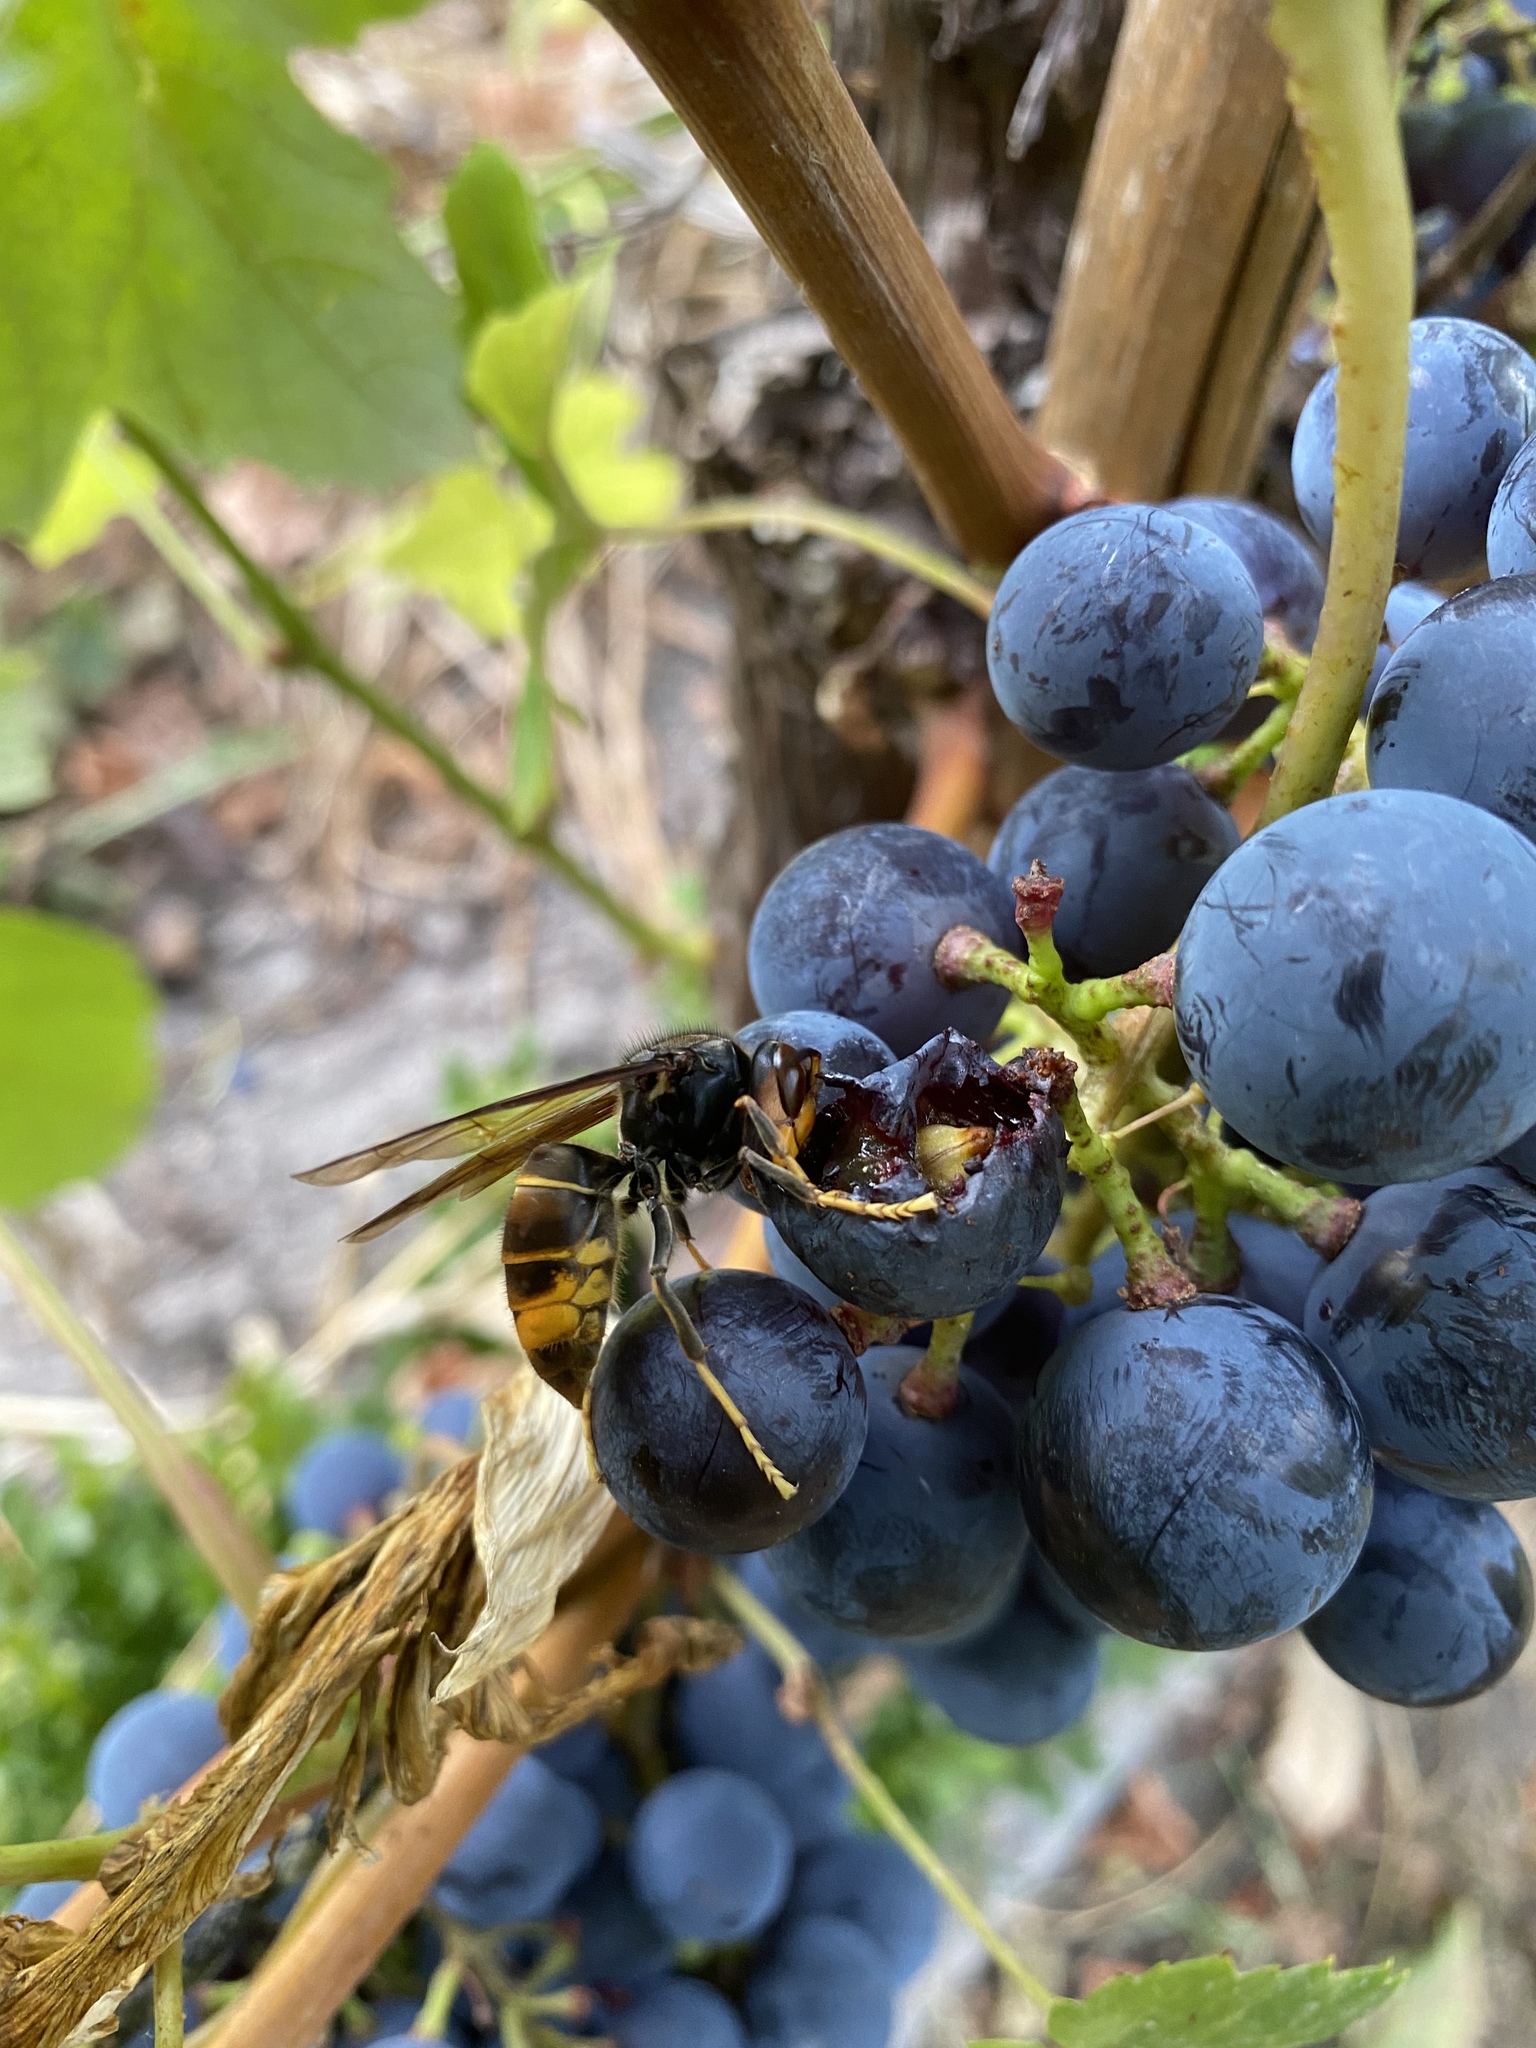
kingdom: Animalia
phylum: Arthropoda
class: Insecta
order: Hymenoptera
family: Vespidae
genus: Vespa
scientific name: Vespa velutina
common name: Asian hornet
